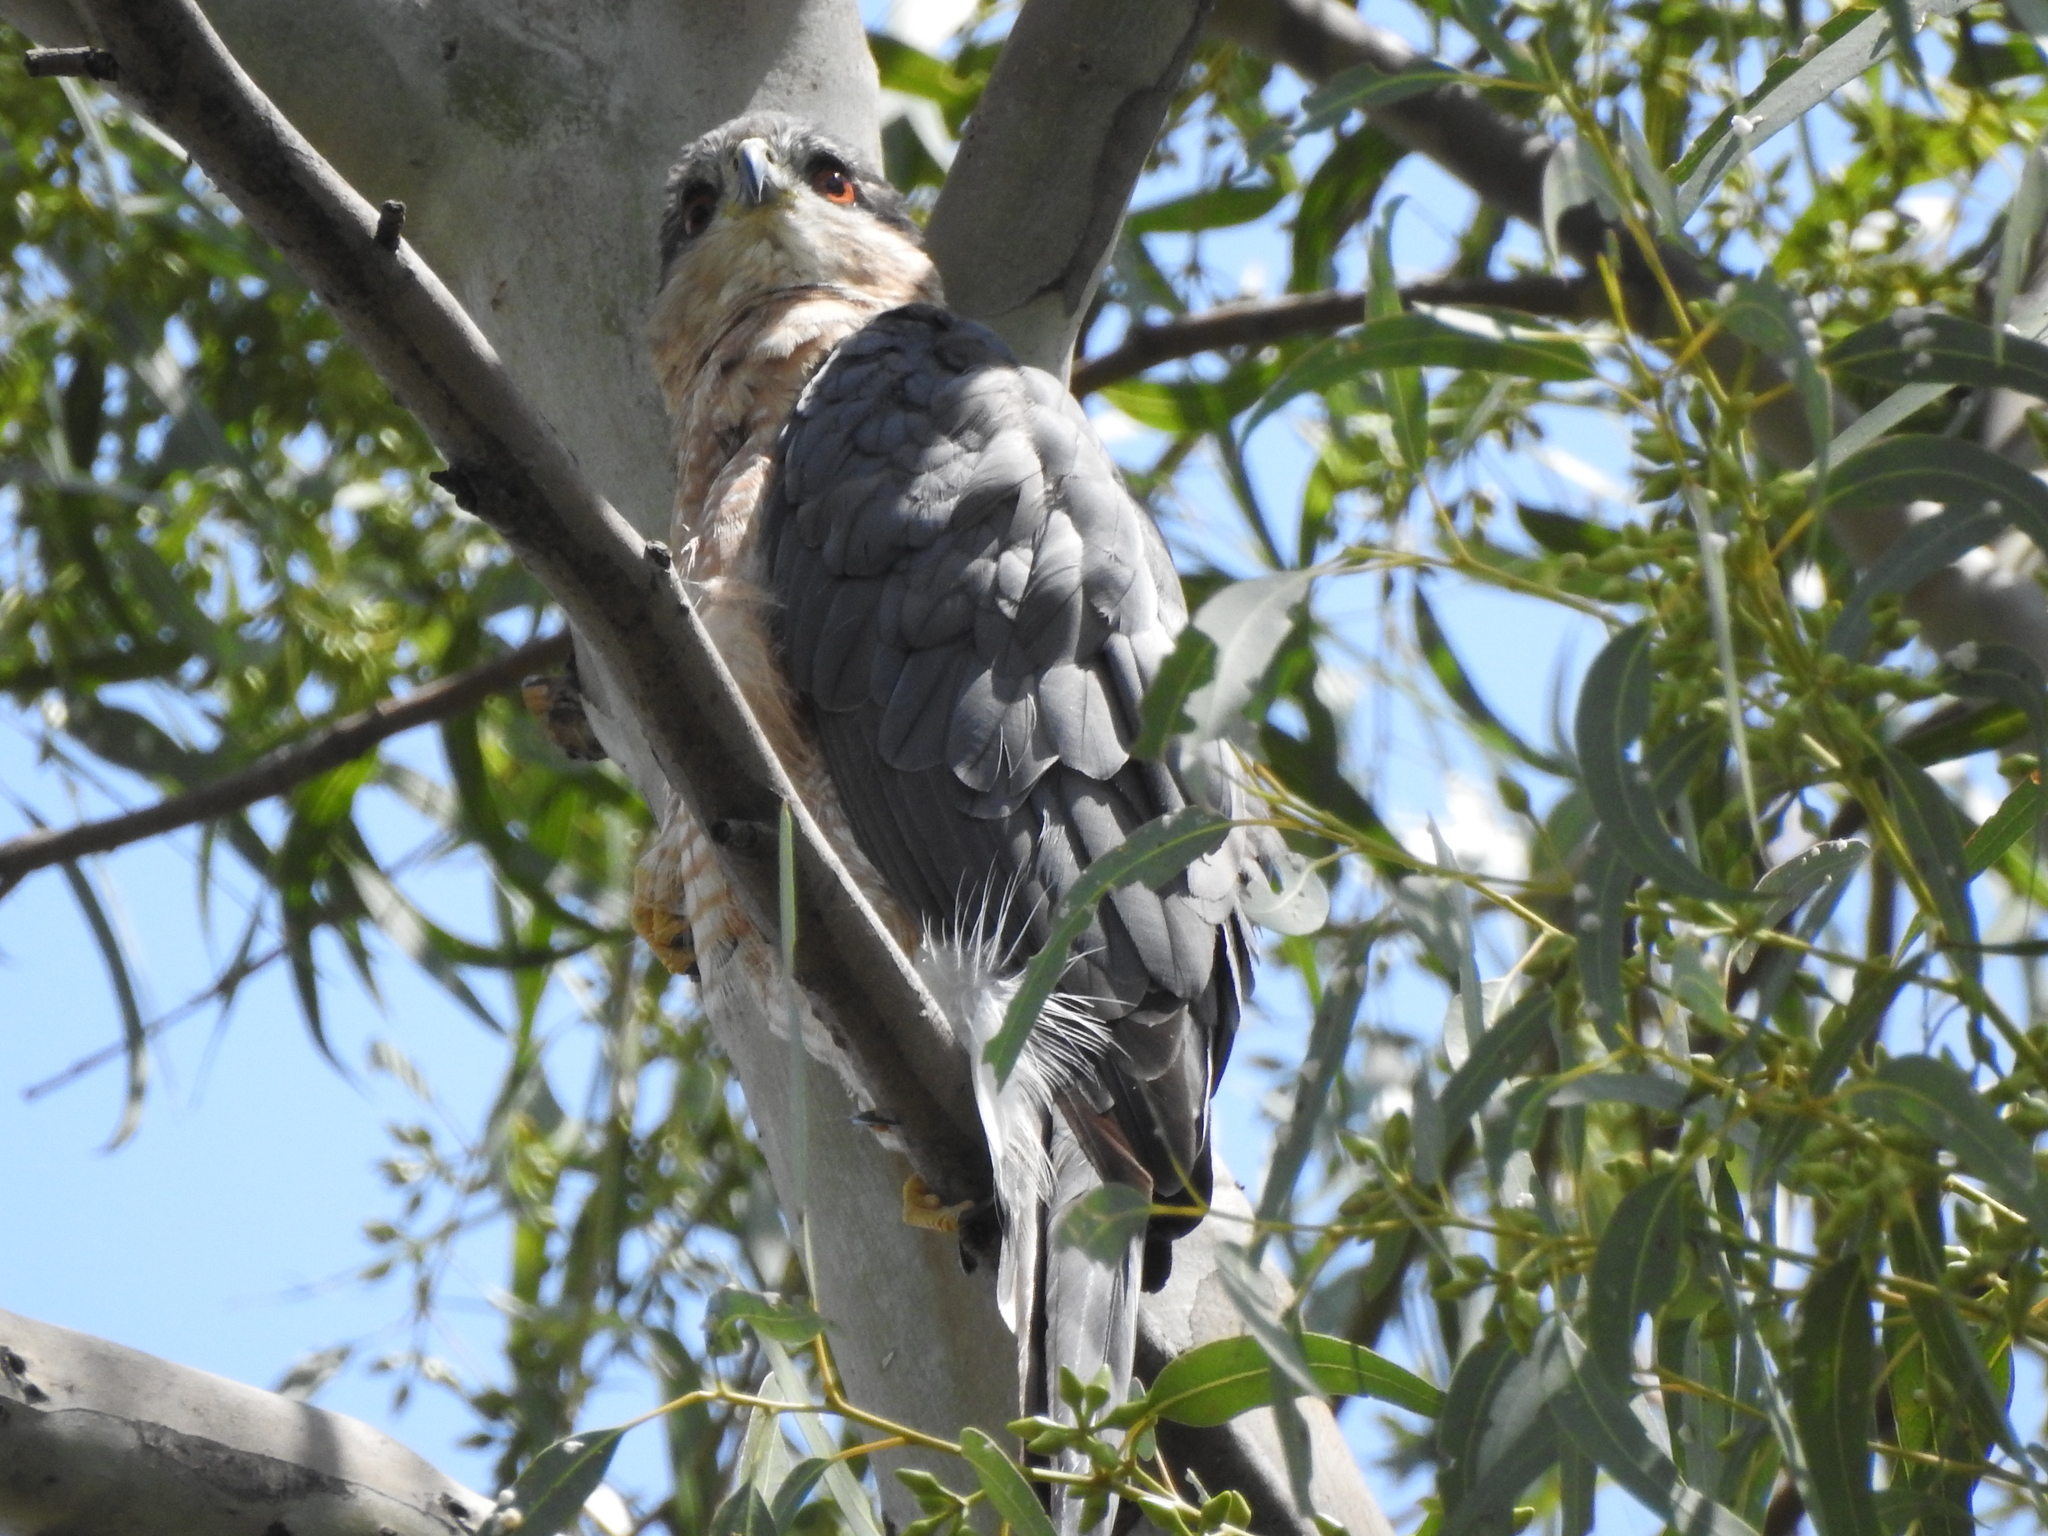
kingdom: Animalia
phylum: Chordata
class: Aves
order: Accipitriformes
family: Accipitridae
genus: Accipiter
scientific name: Accipiter cooperii
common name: Cooper's hawk
